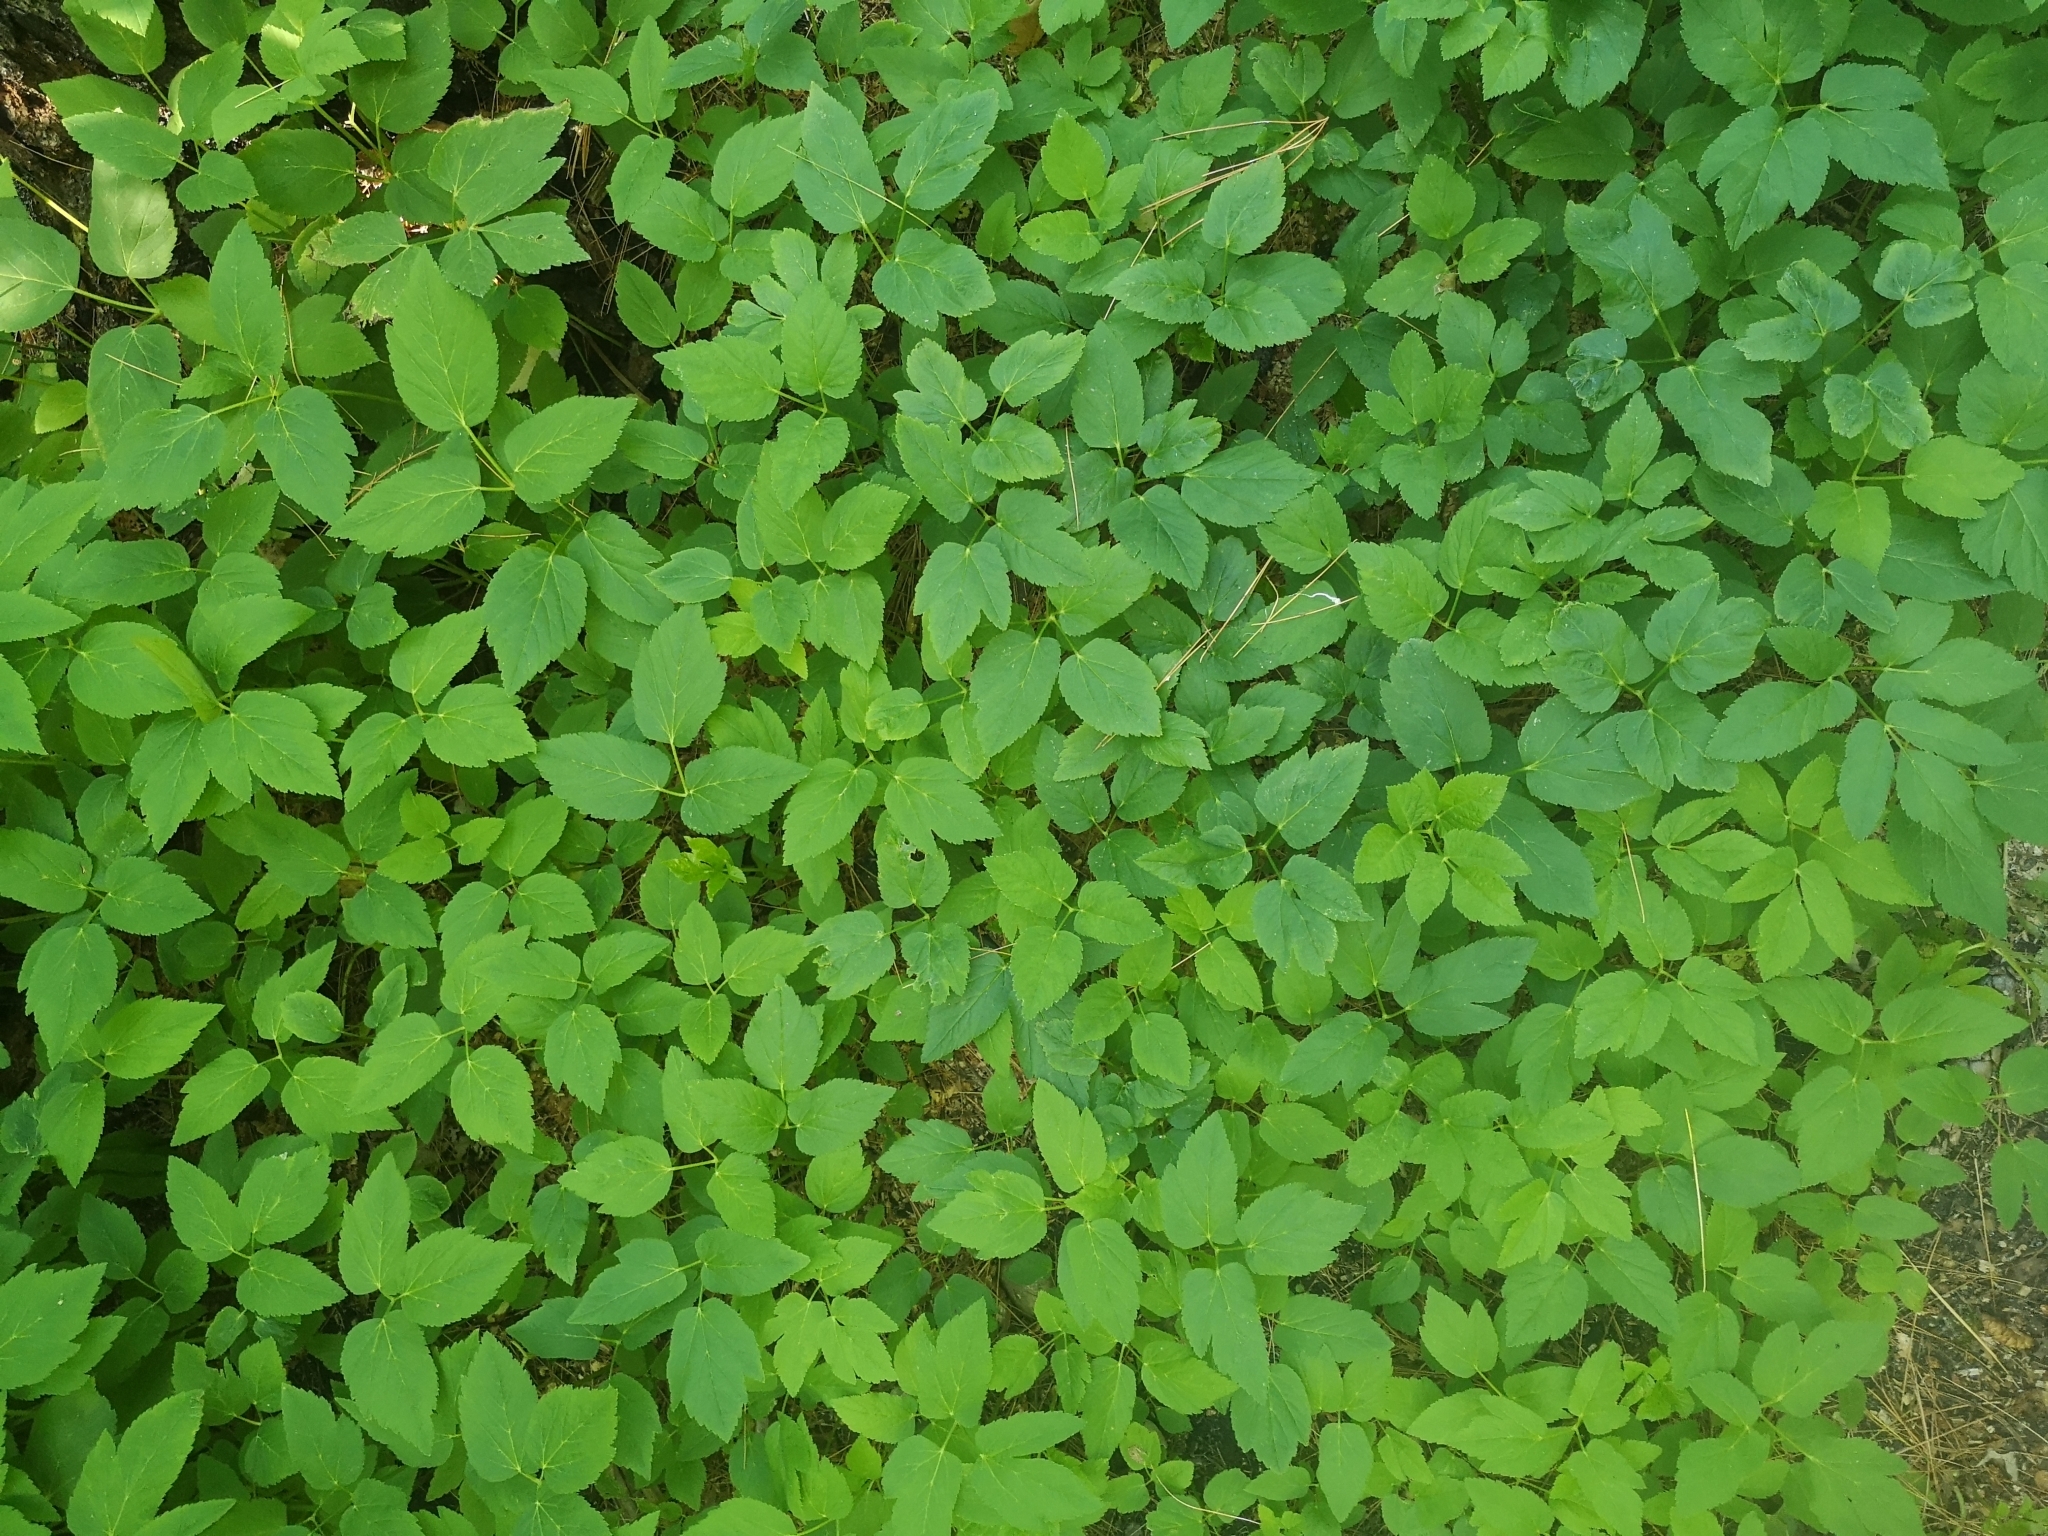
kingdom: Plantae
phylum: Tracheophyta
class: Magnoliopsida
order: Apiales
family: Apiaceae
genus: Aegopodium
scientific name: Aegopodium podagraria
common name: Ground-elder
